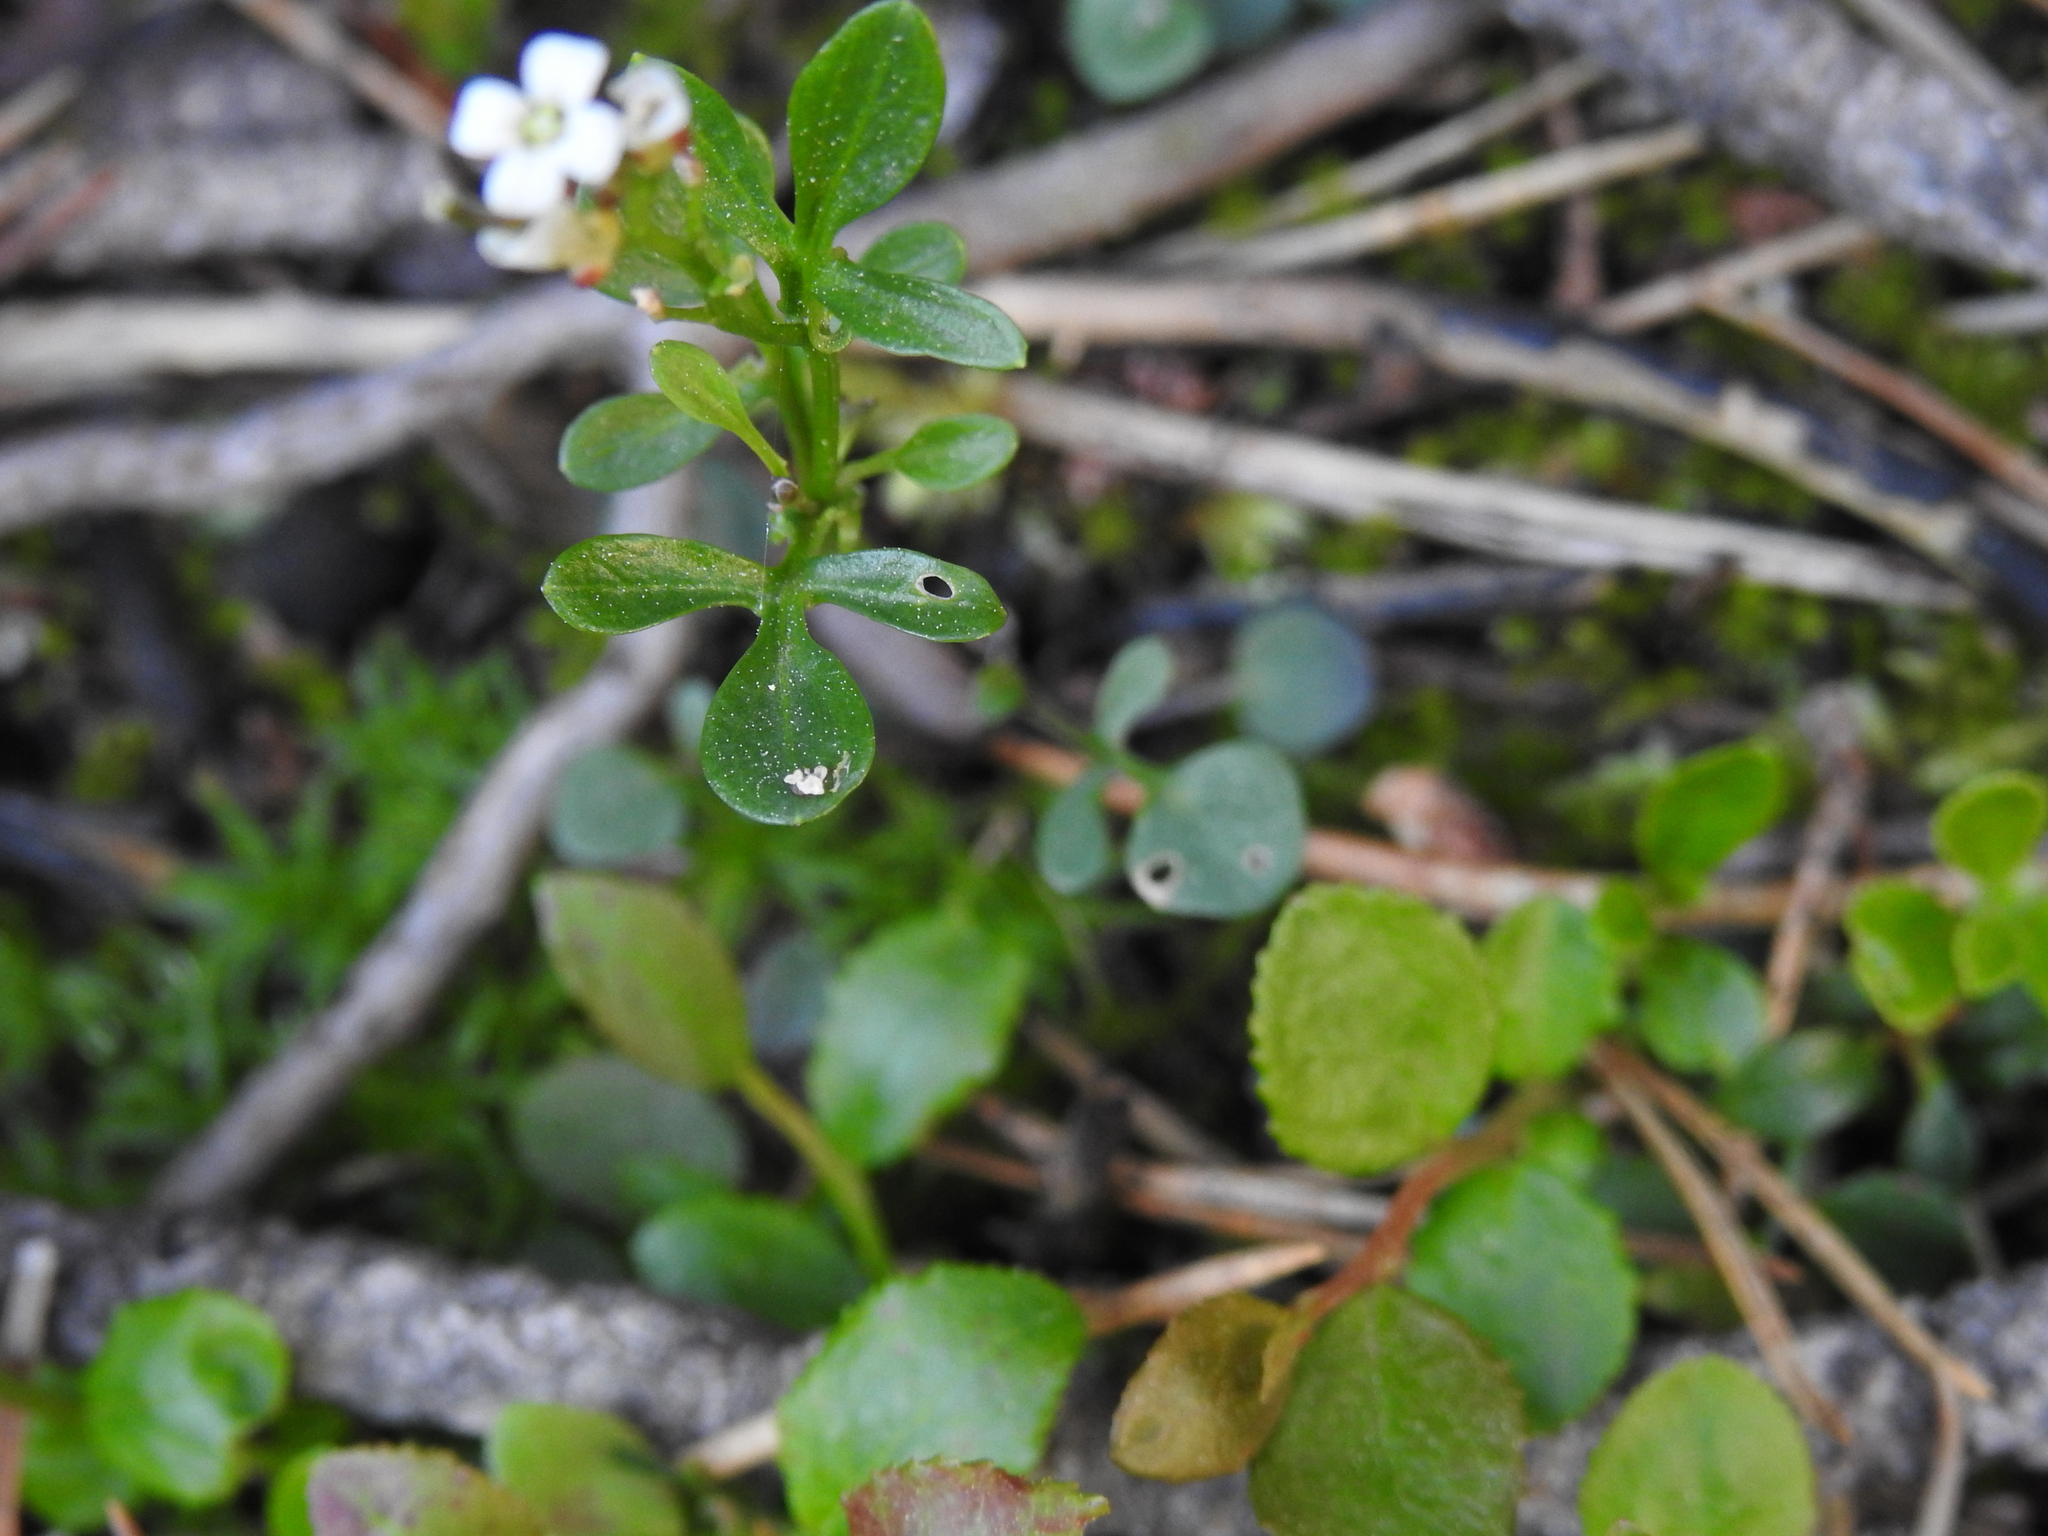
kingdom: Plantae
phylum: Tracheophyta
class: Magnoliopsida
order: Brassicales
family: Brassicaceae
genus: Cardamine
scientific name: Cardamine resedifolia
